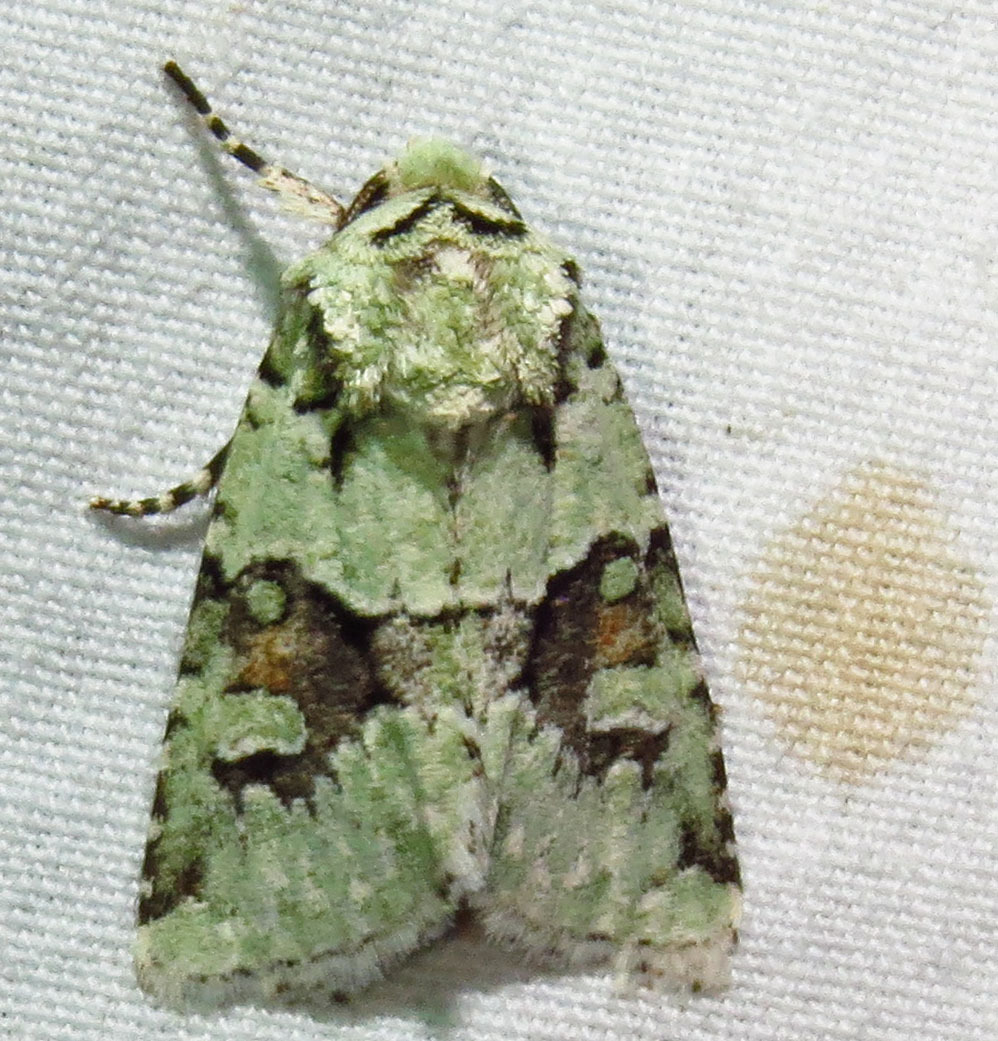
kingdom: Animalia
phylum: Arthropoda
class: Insecta
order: Lepidoptera
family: Noctuidae
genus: Lacinipolia
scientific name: Lacinipolia implicata
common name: Implicit arches
